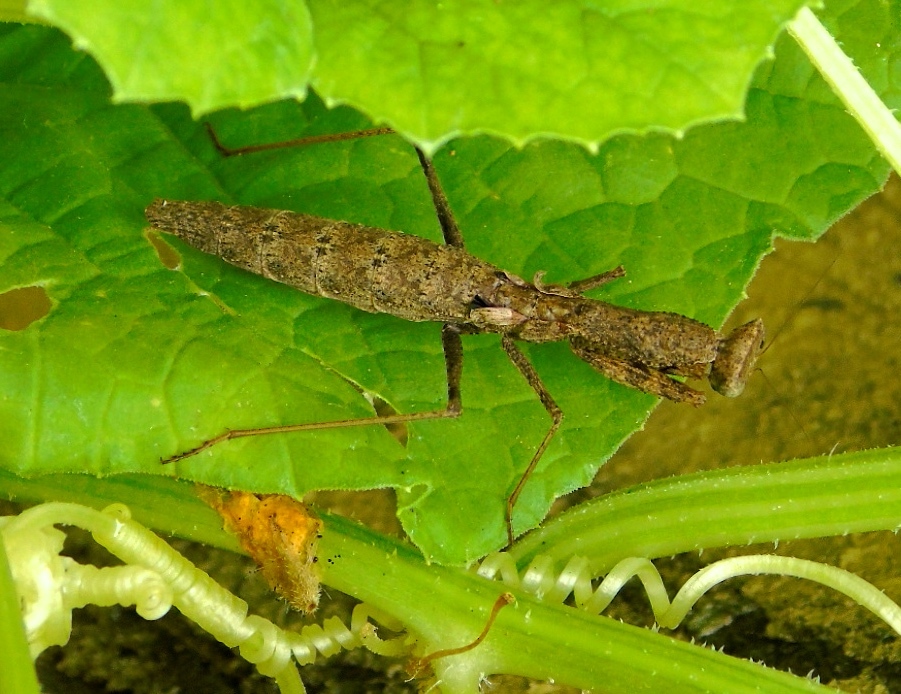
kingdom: Animalia
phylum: Arthropoda
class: Insecta
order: Mantodea
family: Amelidae
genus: Yersinia
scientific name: Yersinia mexicana
